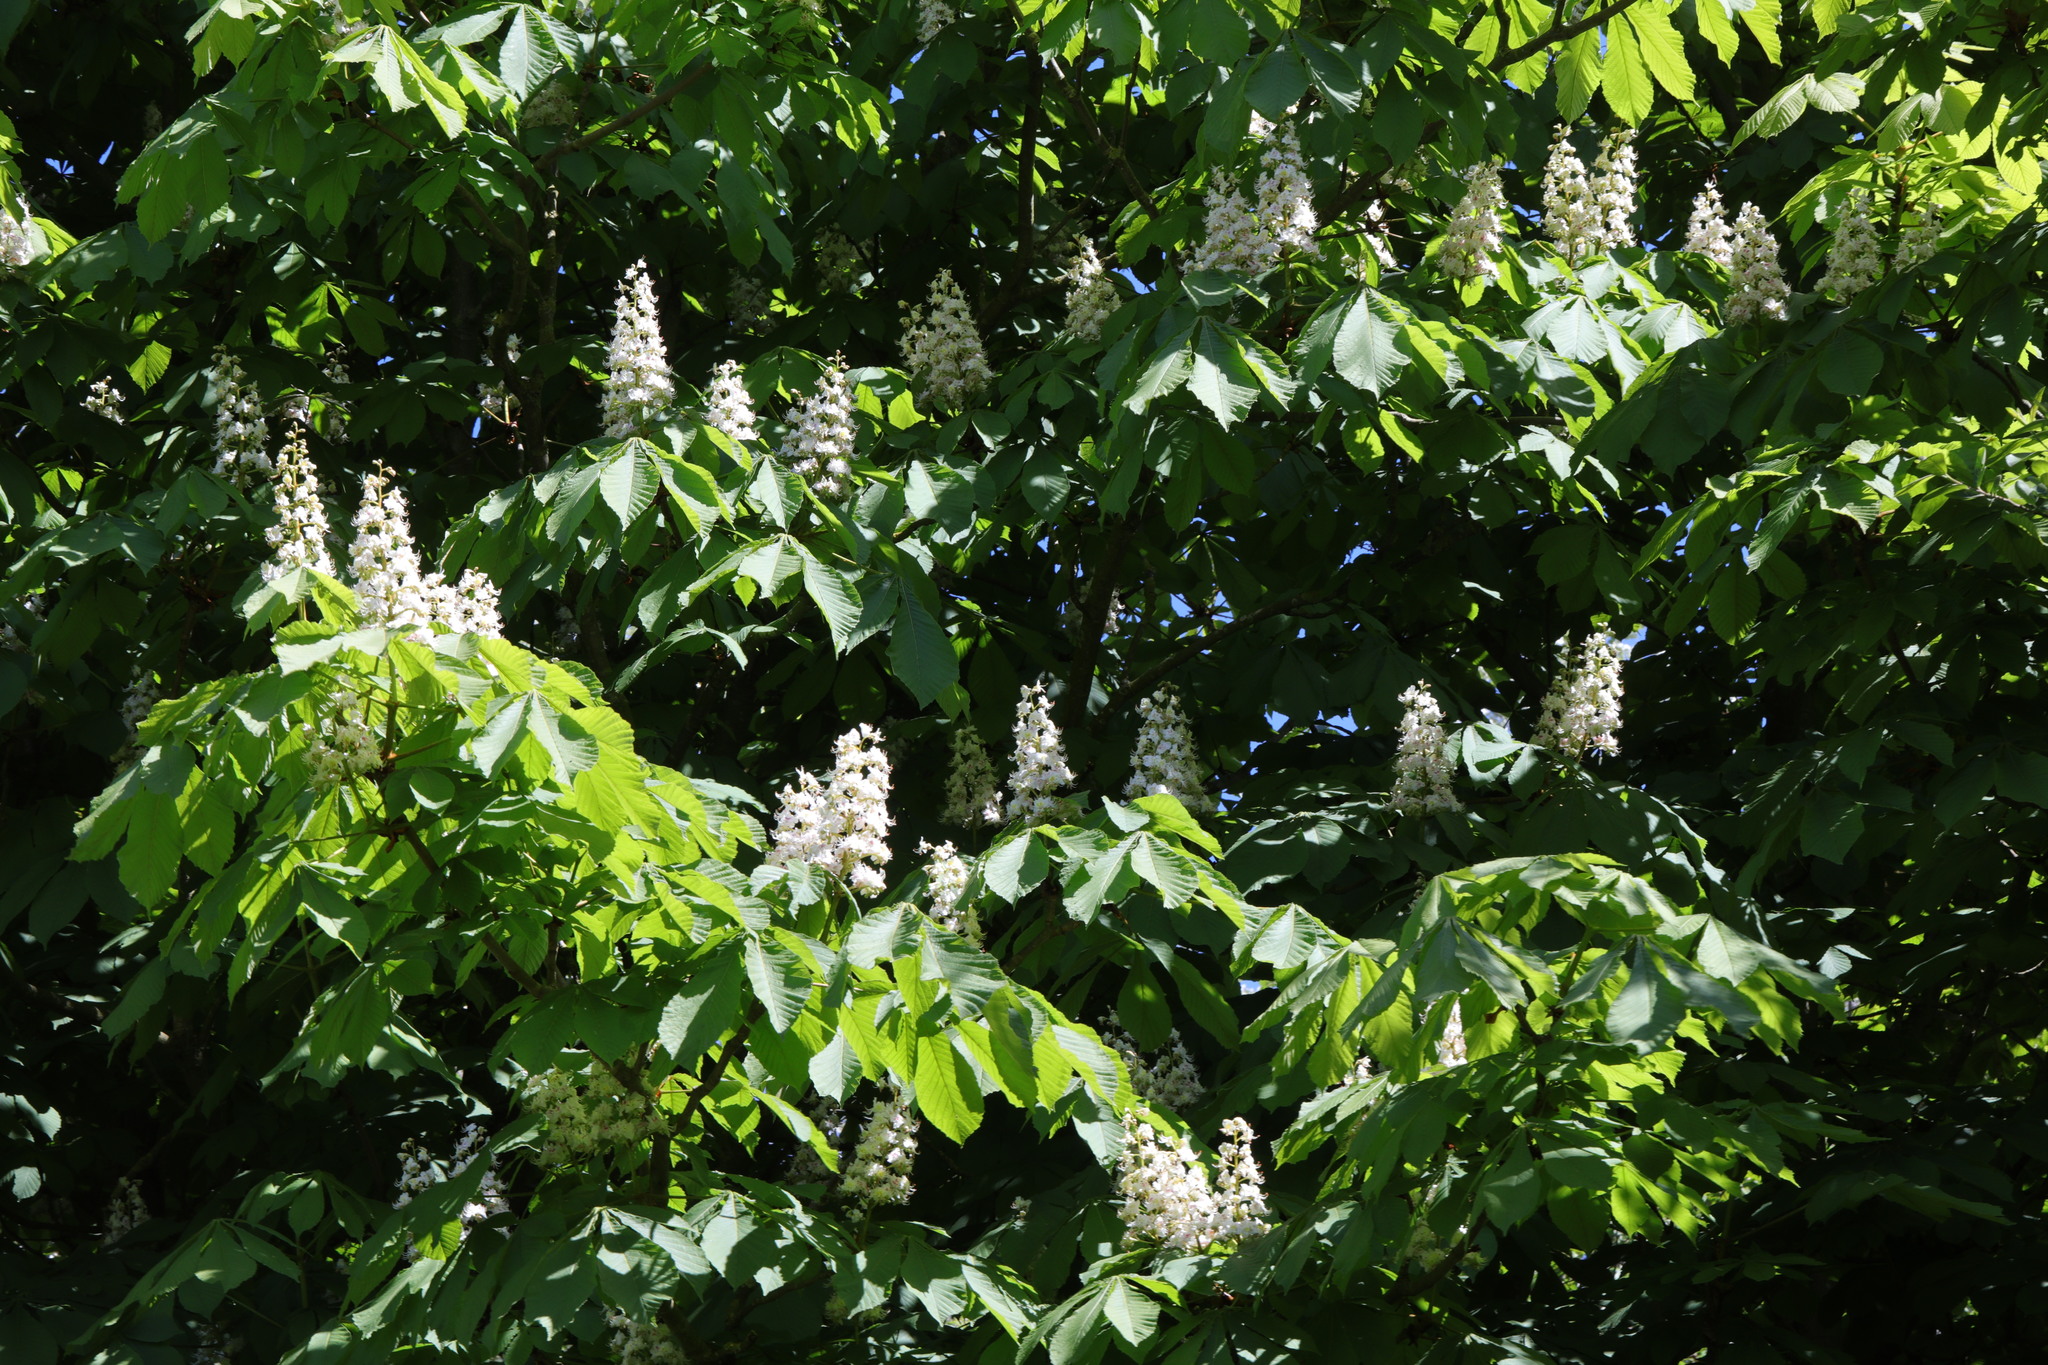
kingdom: Plantae
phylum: Tracheophyta
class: Magnoliopsida
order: Sapindales
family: Sapindaceae
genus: Aesculus
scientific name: Aesculus hippocastanum
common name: Horse-chestnut
